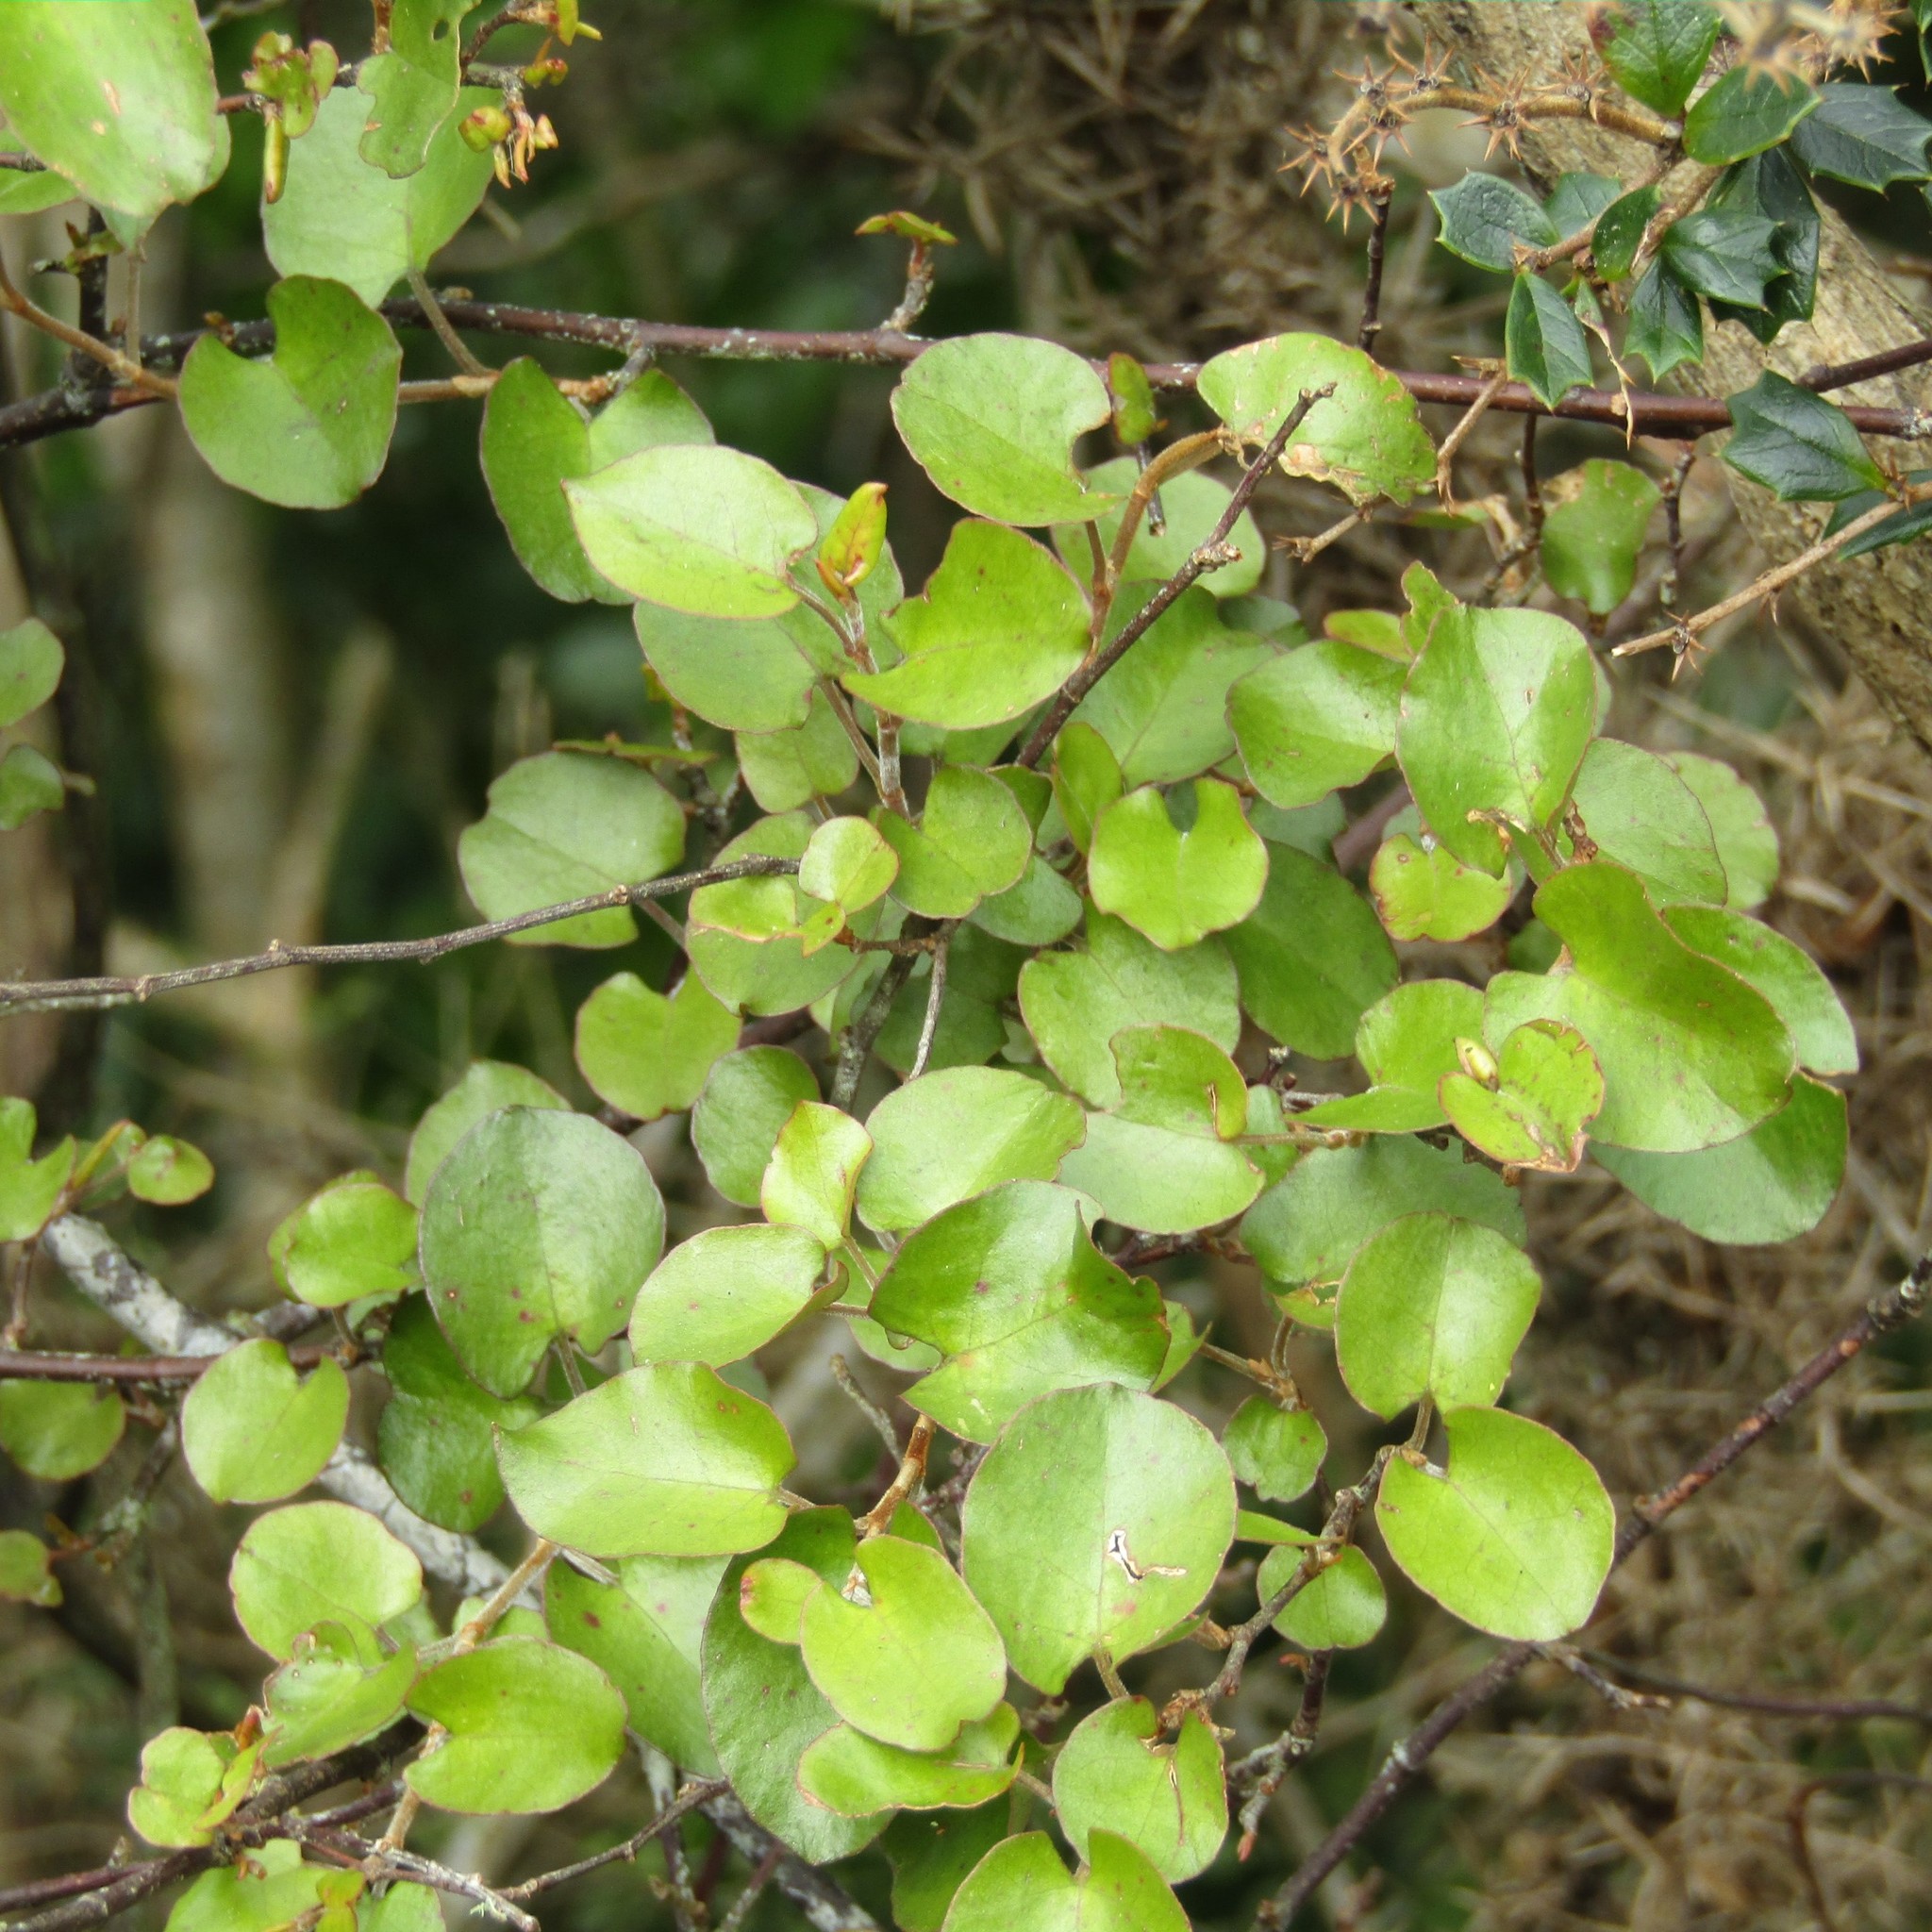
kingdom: Plantae
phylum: Tracheophyta
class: Magnoliopsida
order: Caryophyllales
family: Polygonaceae
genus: Muehlenbeckia
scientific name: Muehlenbeckia complexa
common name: Wireplant
